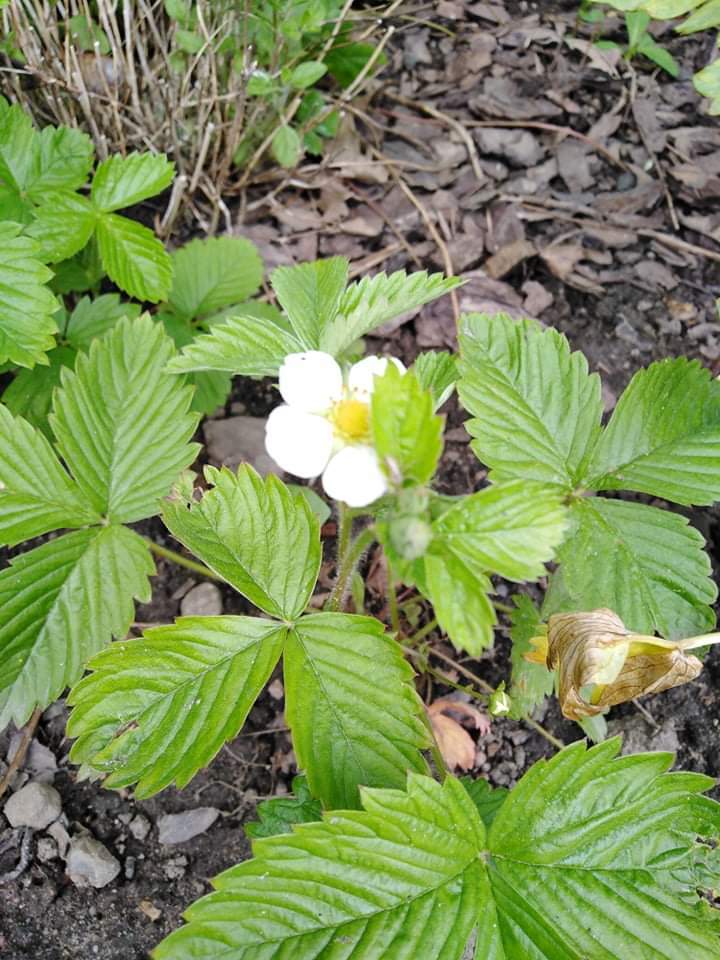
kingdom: Plantae
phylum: Tracheophyta
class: Magnoliopsida
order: Rosales
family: Rosaceae
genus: Fragaria
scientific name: Fragaria vesca
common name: Wild strawberry
